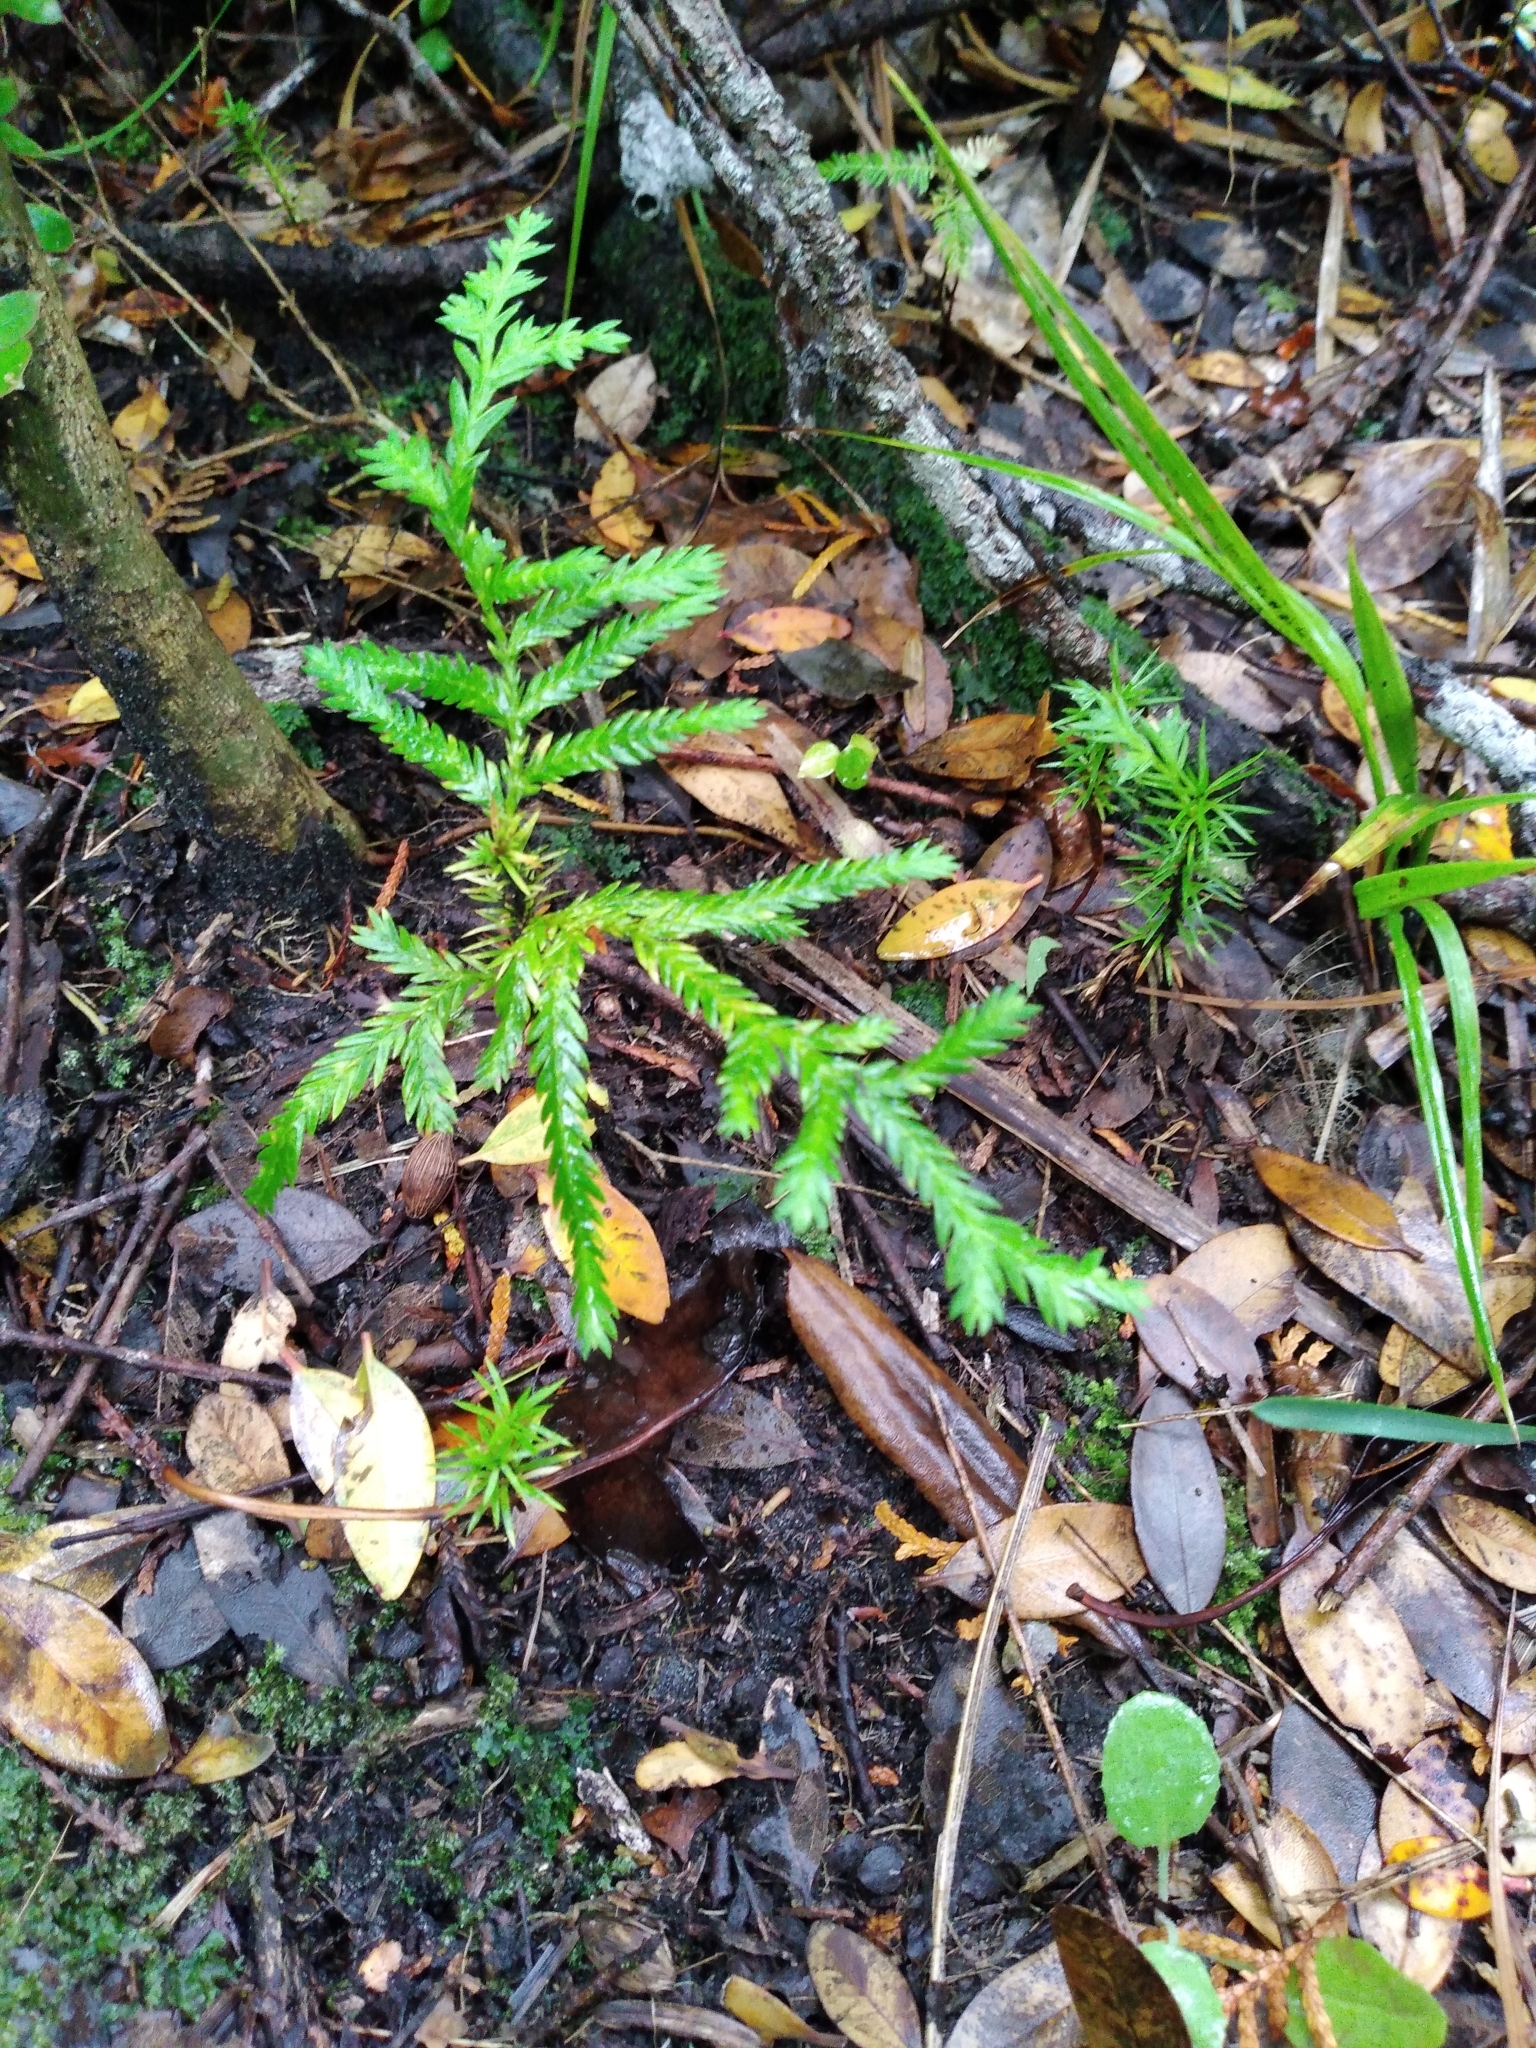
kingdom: Plantae
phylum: Tracheophyta
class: Pinopsida
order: Pinales
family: Cupressaceae
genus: Libocedrus
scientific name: Libocedrus plumosa
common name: New zealand cedar
